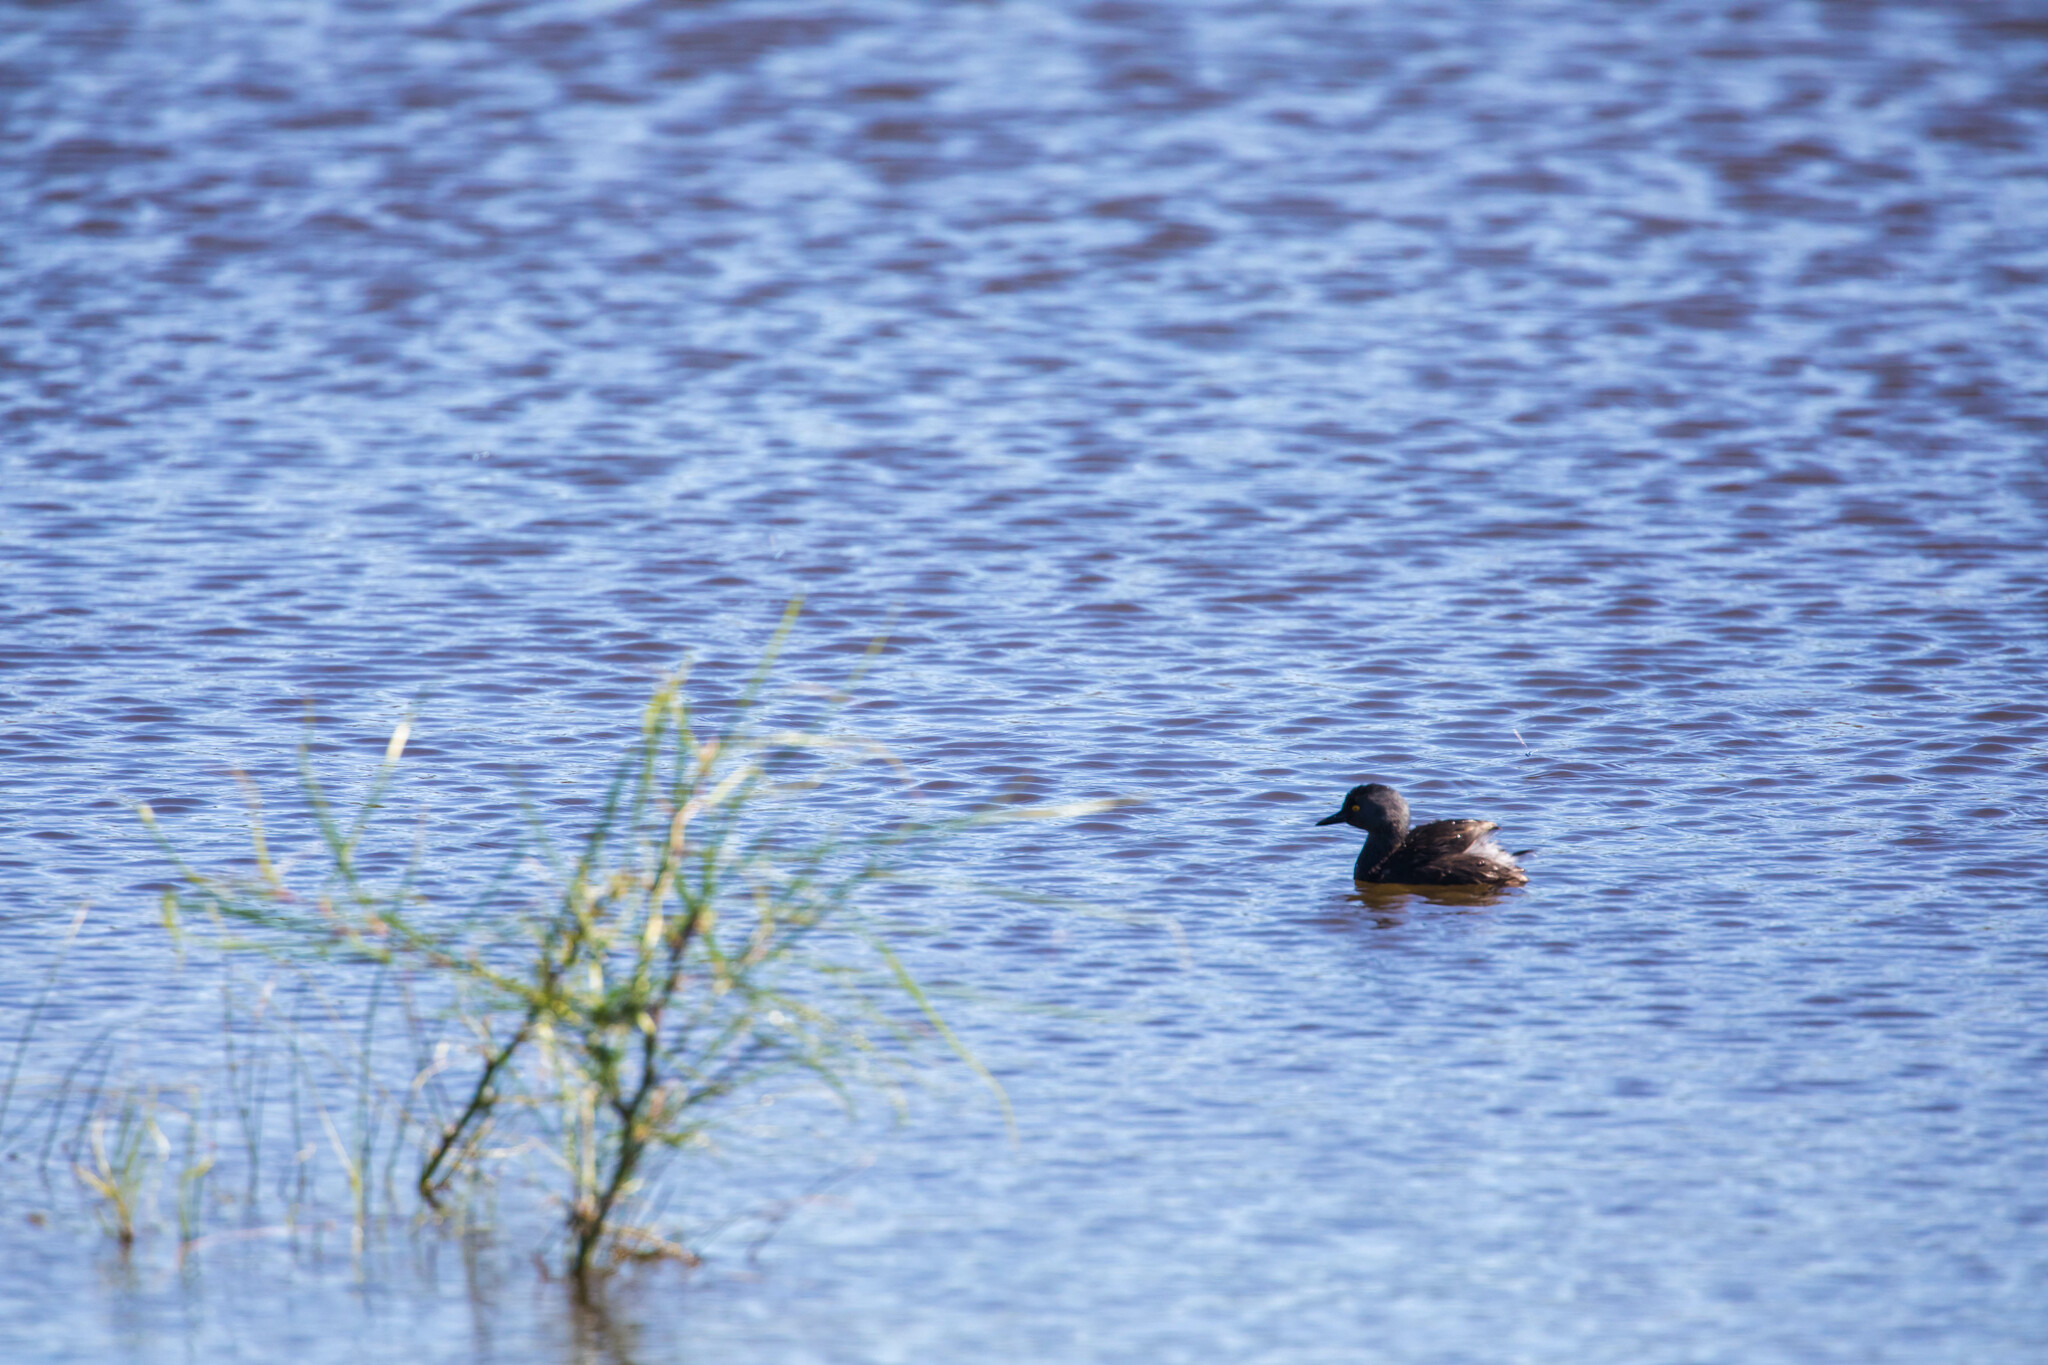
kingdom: Animalia
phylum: Chordata
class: Aves
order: Podicipediformes
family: Podicipedidae
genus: Tachybaptus
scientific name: Tachybaptus dominicus
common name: Least grebe
